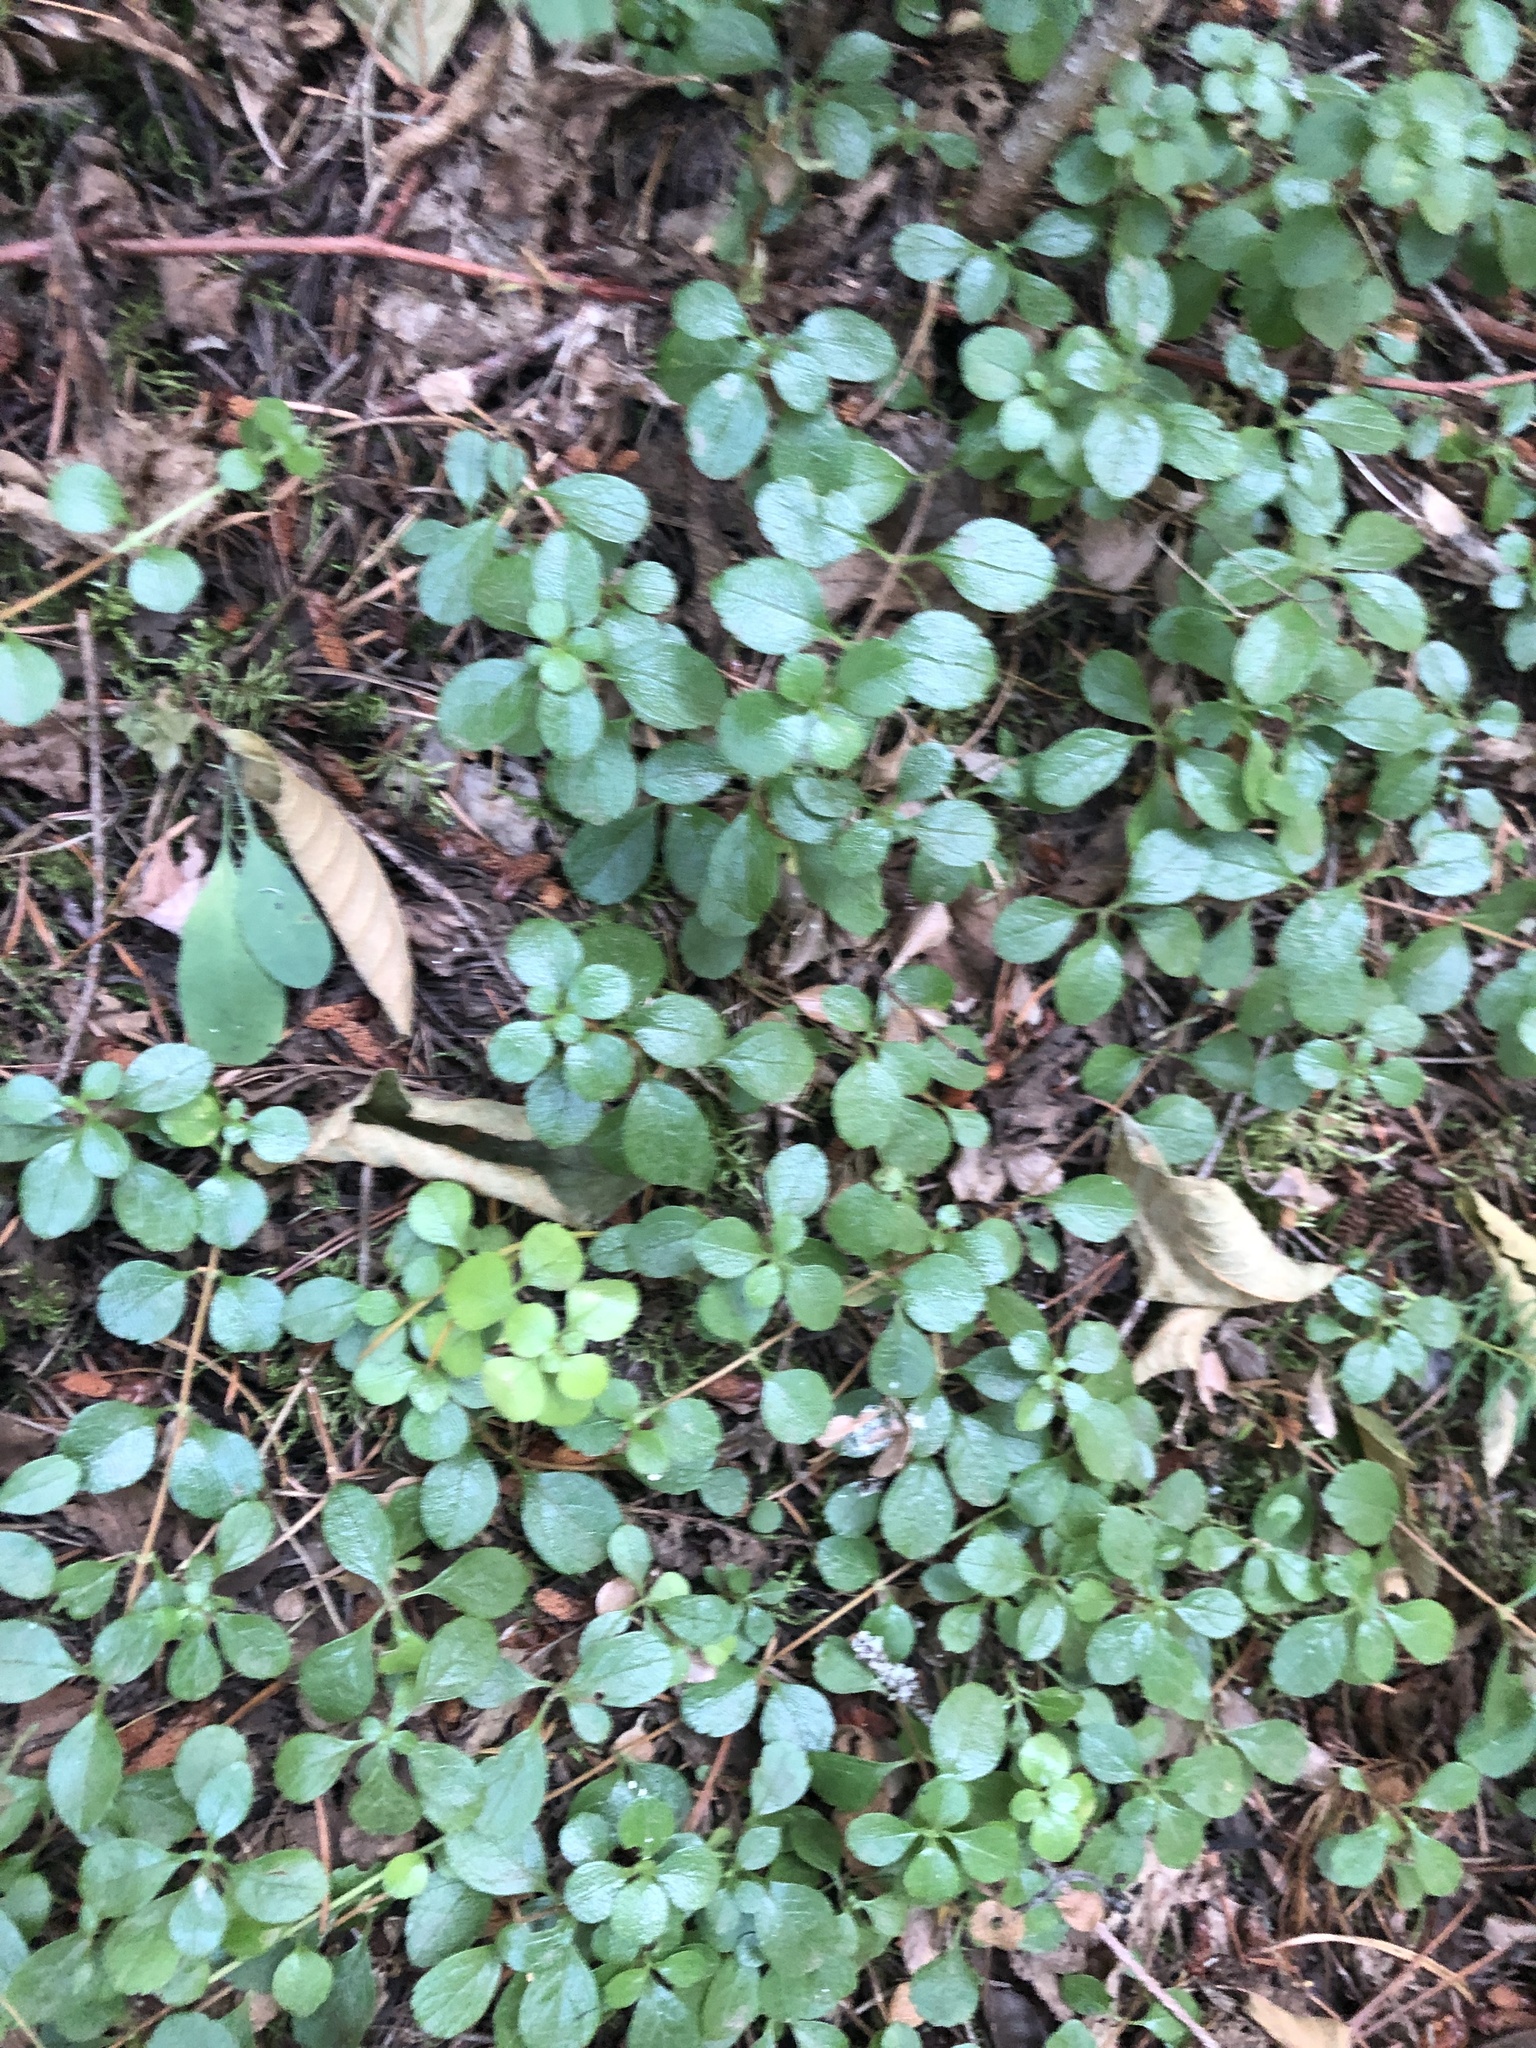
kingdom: Plantae
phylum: Tracheophyta
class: Magnoliopsida
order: Dipsacales
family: Caprifoliaceae
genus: Linnaea
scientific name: Linnaea borealis
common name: Twinflower
